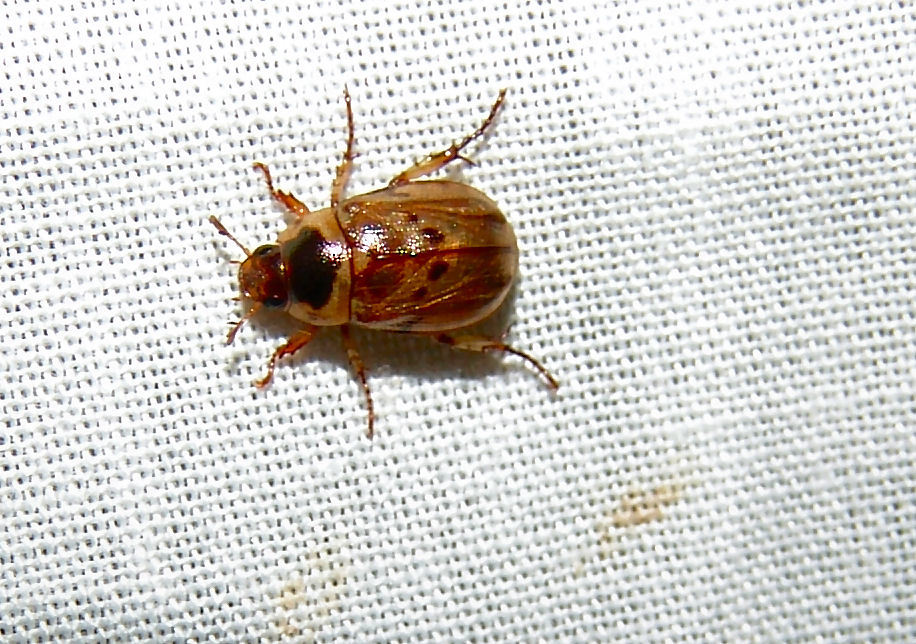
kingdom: Animalia
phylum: Arthropoda
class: Insecta
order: Coleoptera
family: Scarabaeidae
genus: Anomala
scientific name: Anomala innuba
